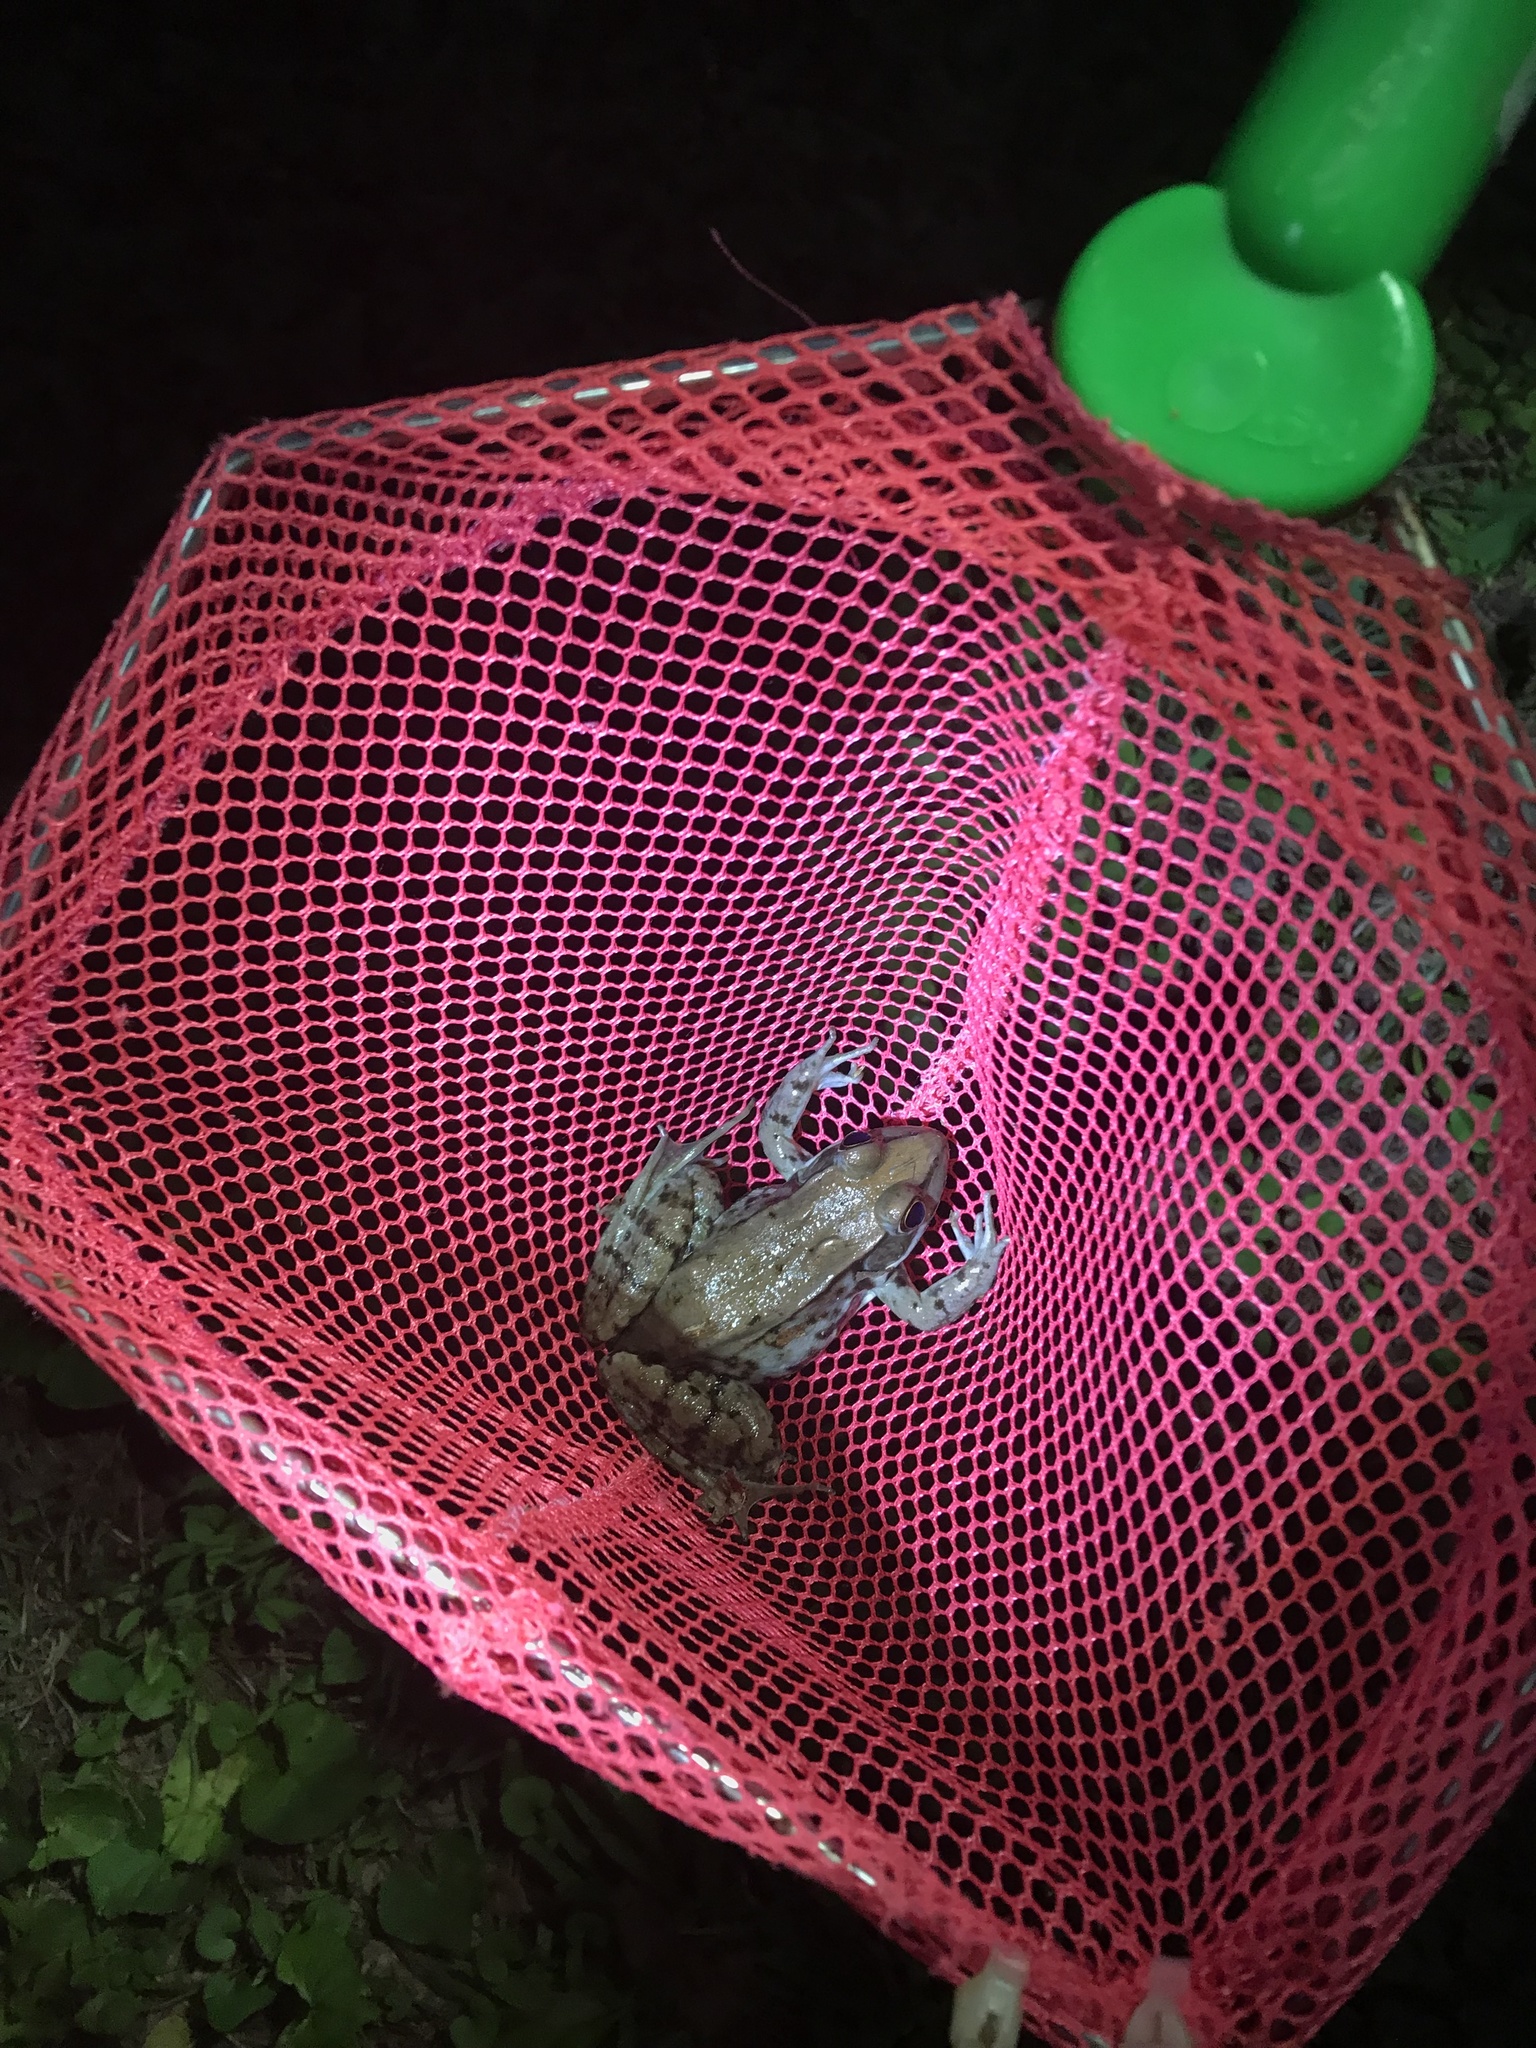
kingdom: Animalia
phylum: Chordata
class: Amphibia
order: Anura
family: Ranidae
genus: Lithobates
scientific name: Lithobates clamitans
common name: Green frog
